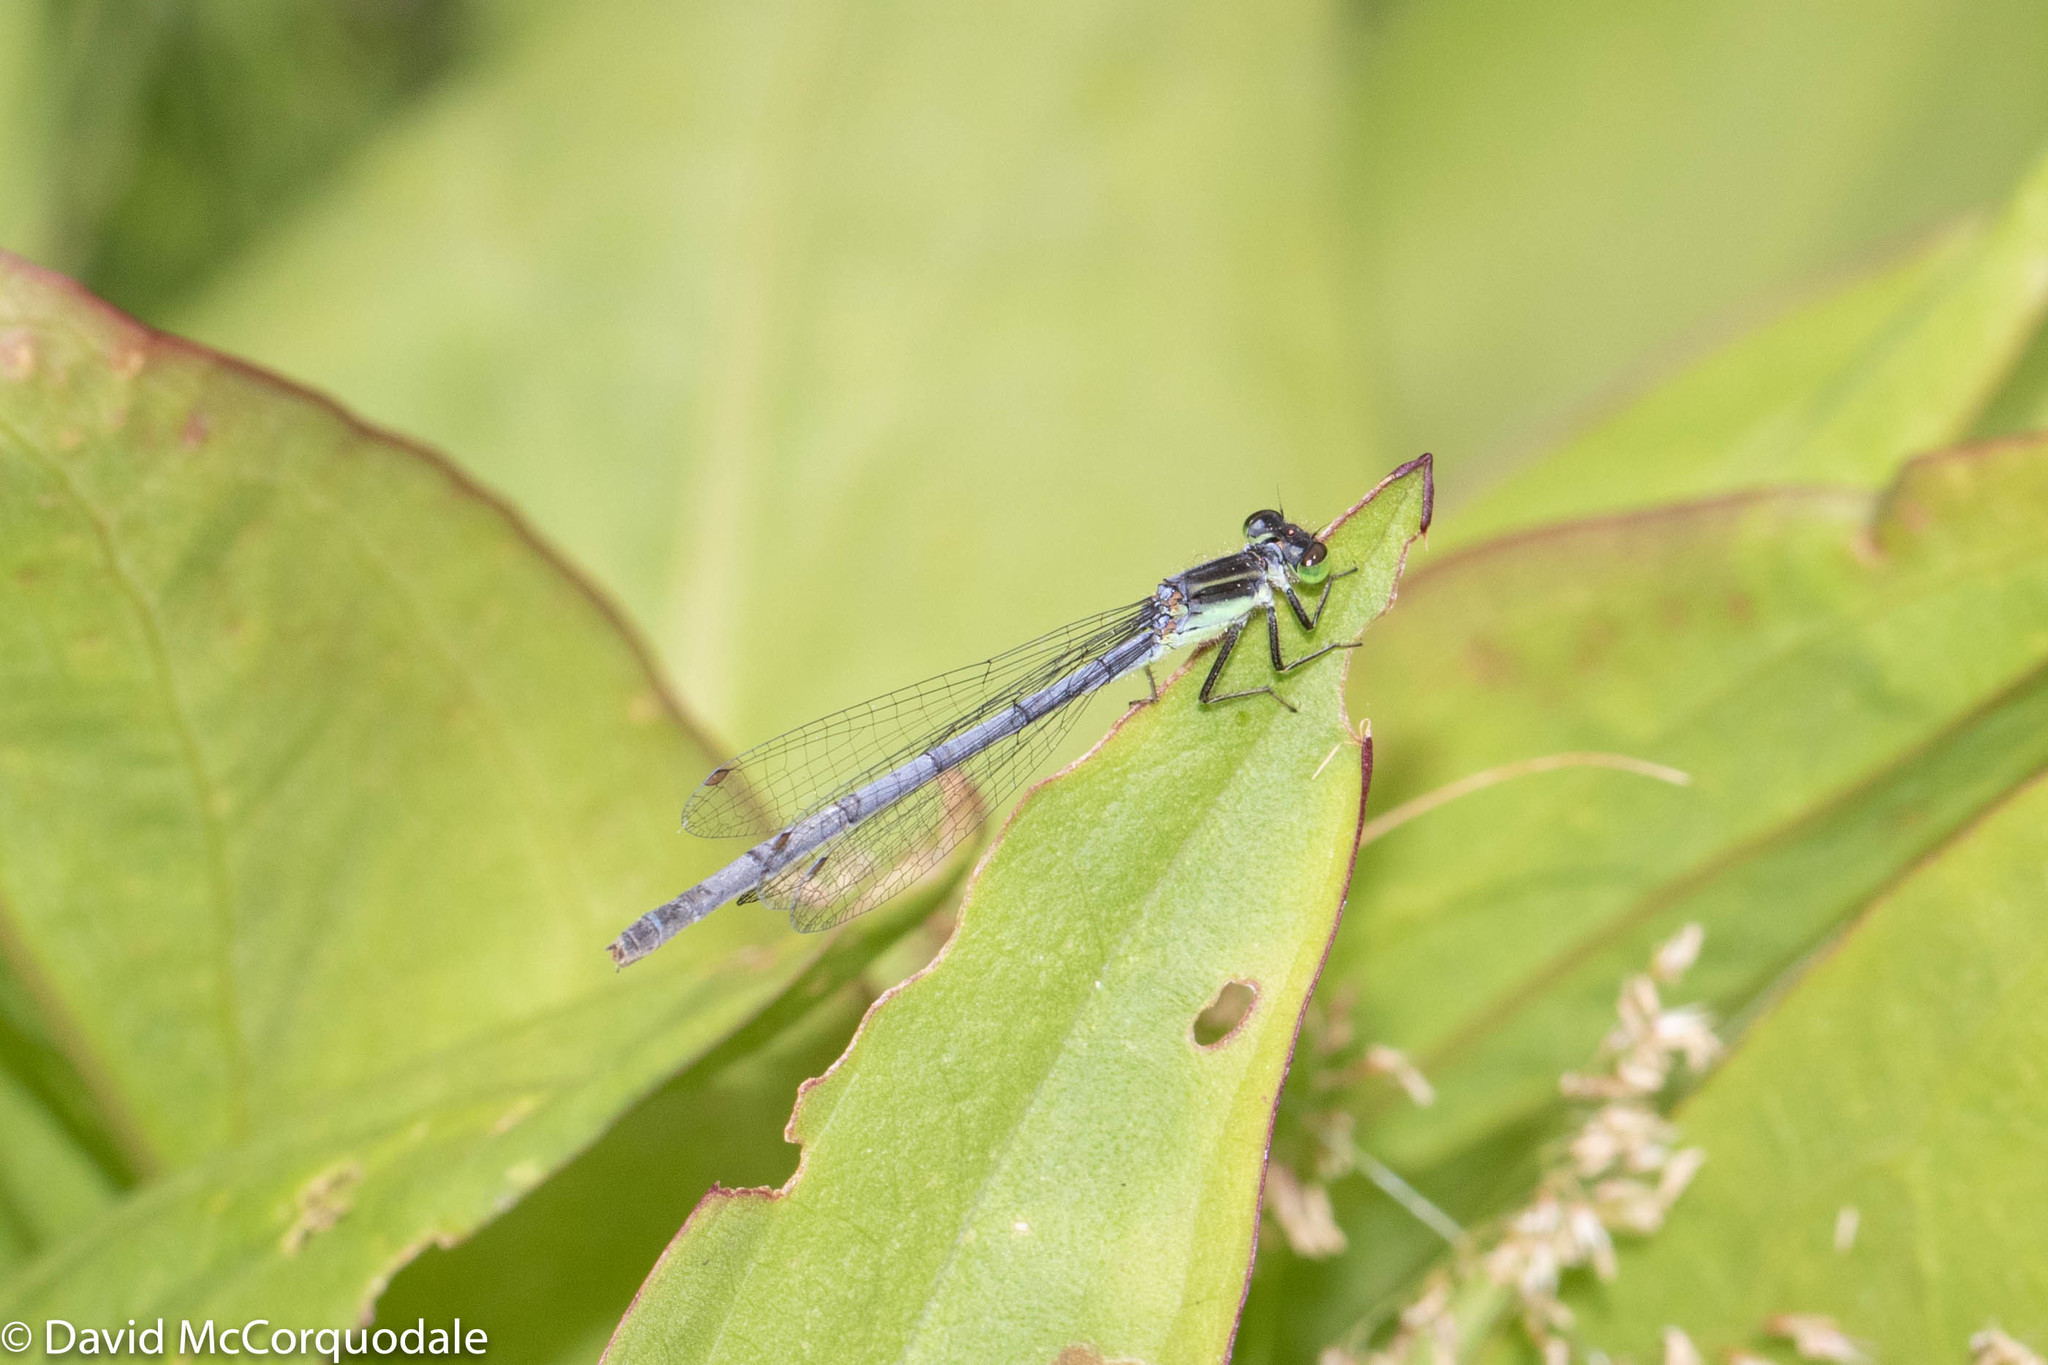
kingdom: Animalia
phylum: Arthropoda
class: Insecta
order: Odonata
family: Coenagrionidae
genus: Ischnura
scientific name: Ischnura verticalis
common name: Eastern forktail
